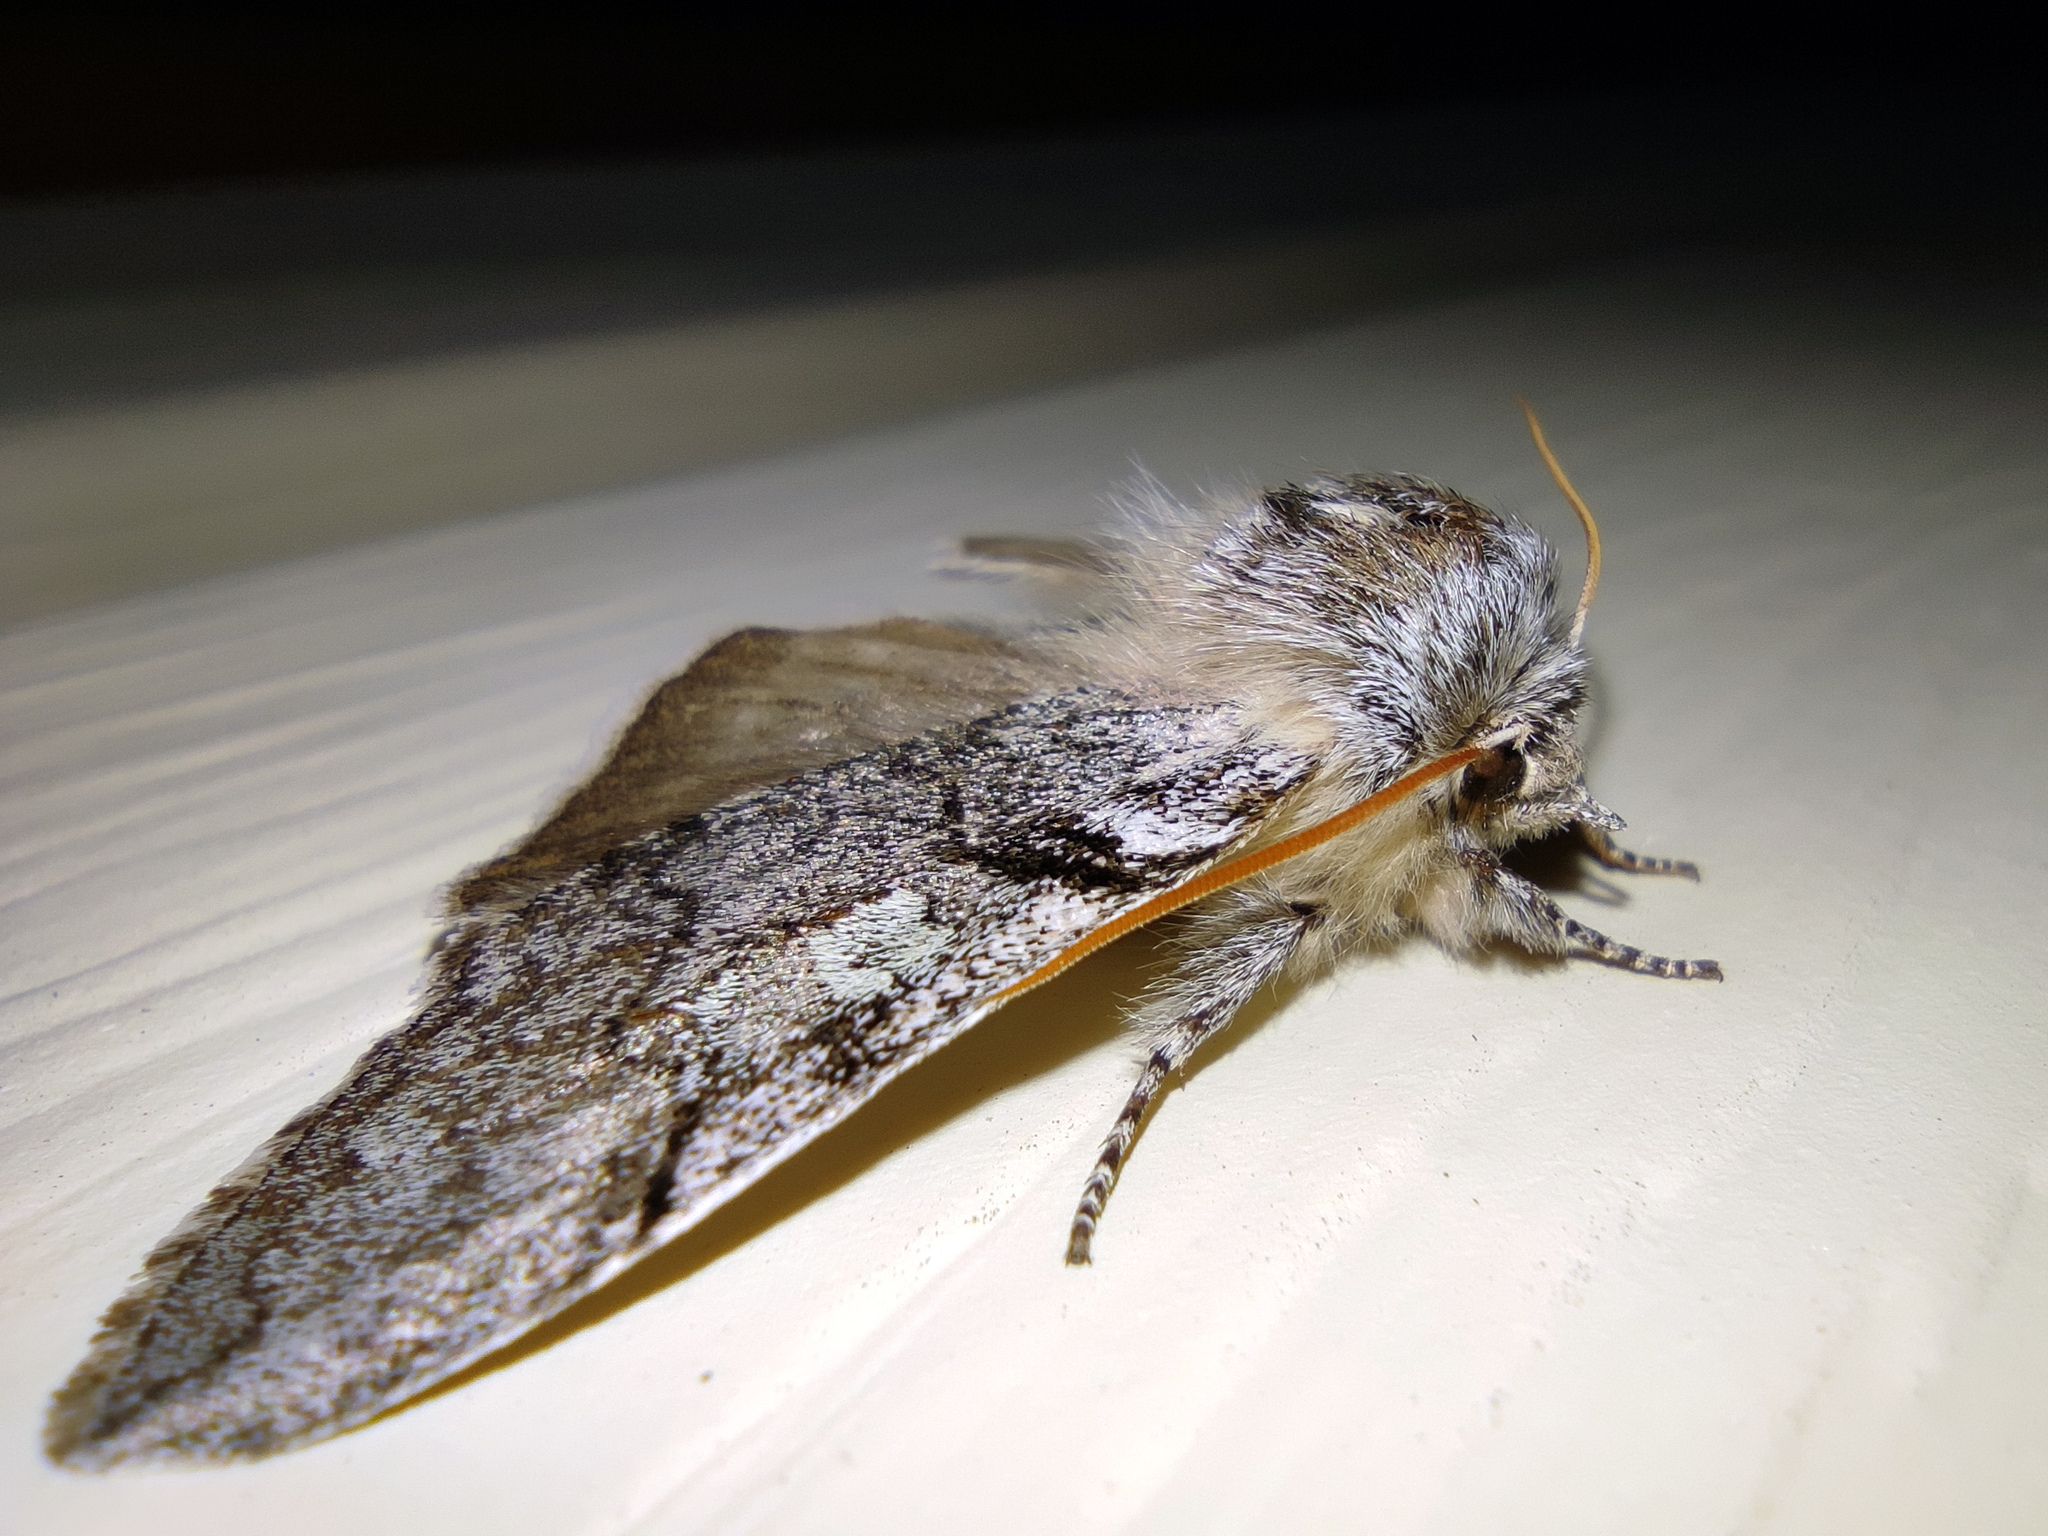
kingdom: Animalia
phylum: Arthropoda
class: Insecta
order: Lepidoptera
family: Drepanidae
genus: Achlya
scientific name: Achlya flavicornis
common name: Yellow horned
